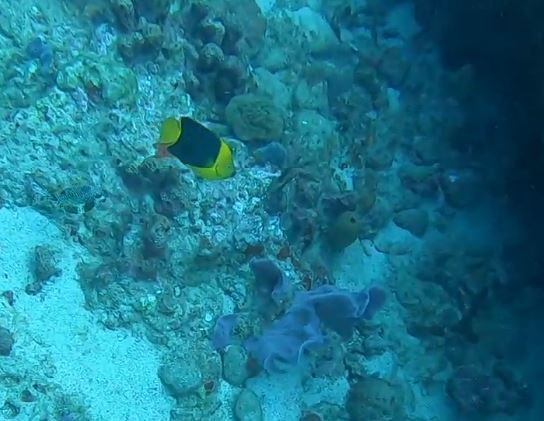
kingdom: Animalia
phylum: Chordata
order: Perciformes
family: Pomacanthidae
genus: Holacanthus
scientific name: Holacanthus tricolor
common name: Rock beauty
